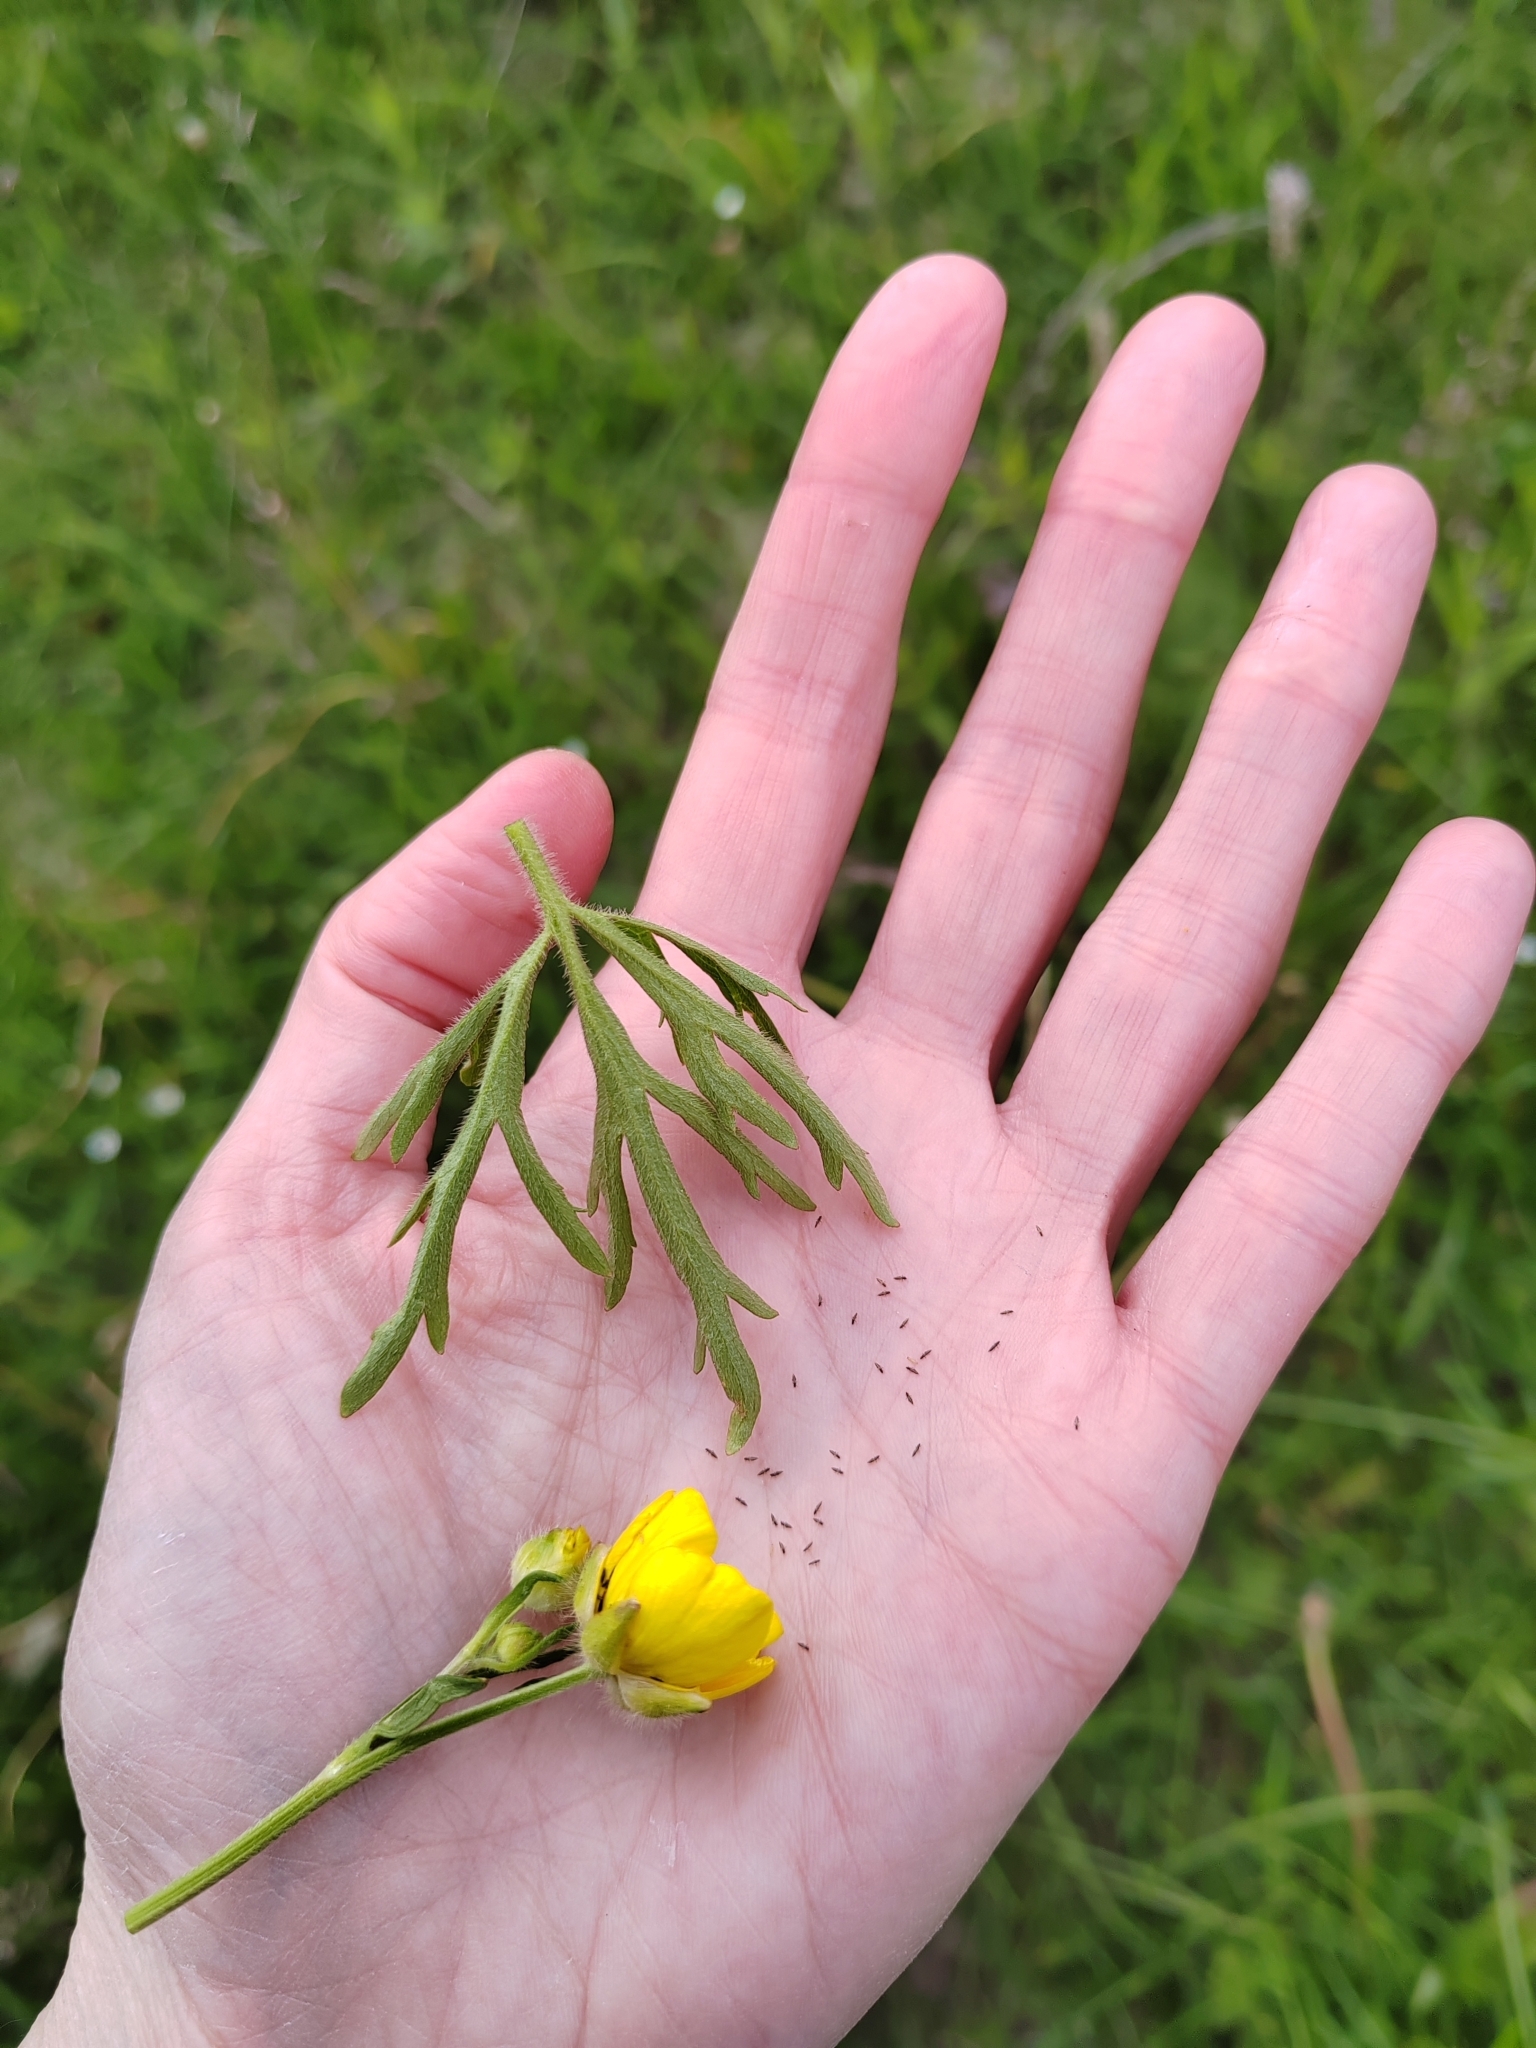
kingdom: Plantae
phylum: Tracheophyta
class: Magnoliopsida
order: Ranunculales
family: Ranunculaceae
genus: Ranunculus
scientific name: Ranunculus polyanthemos
